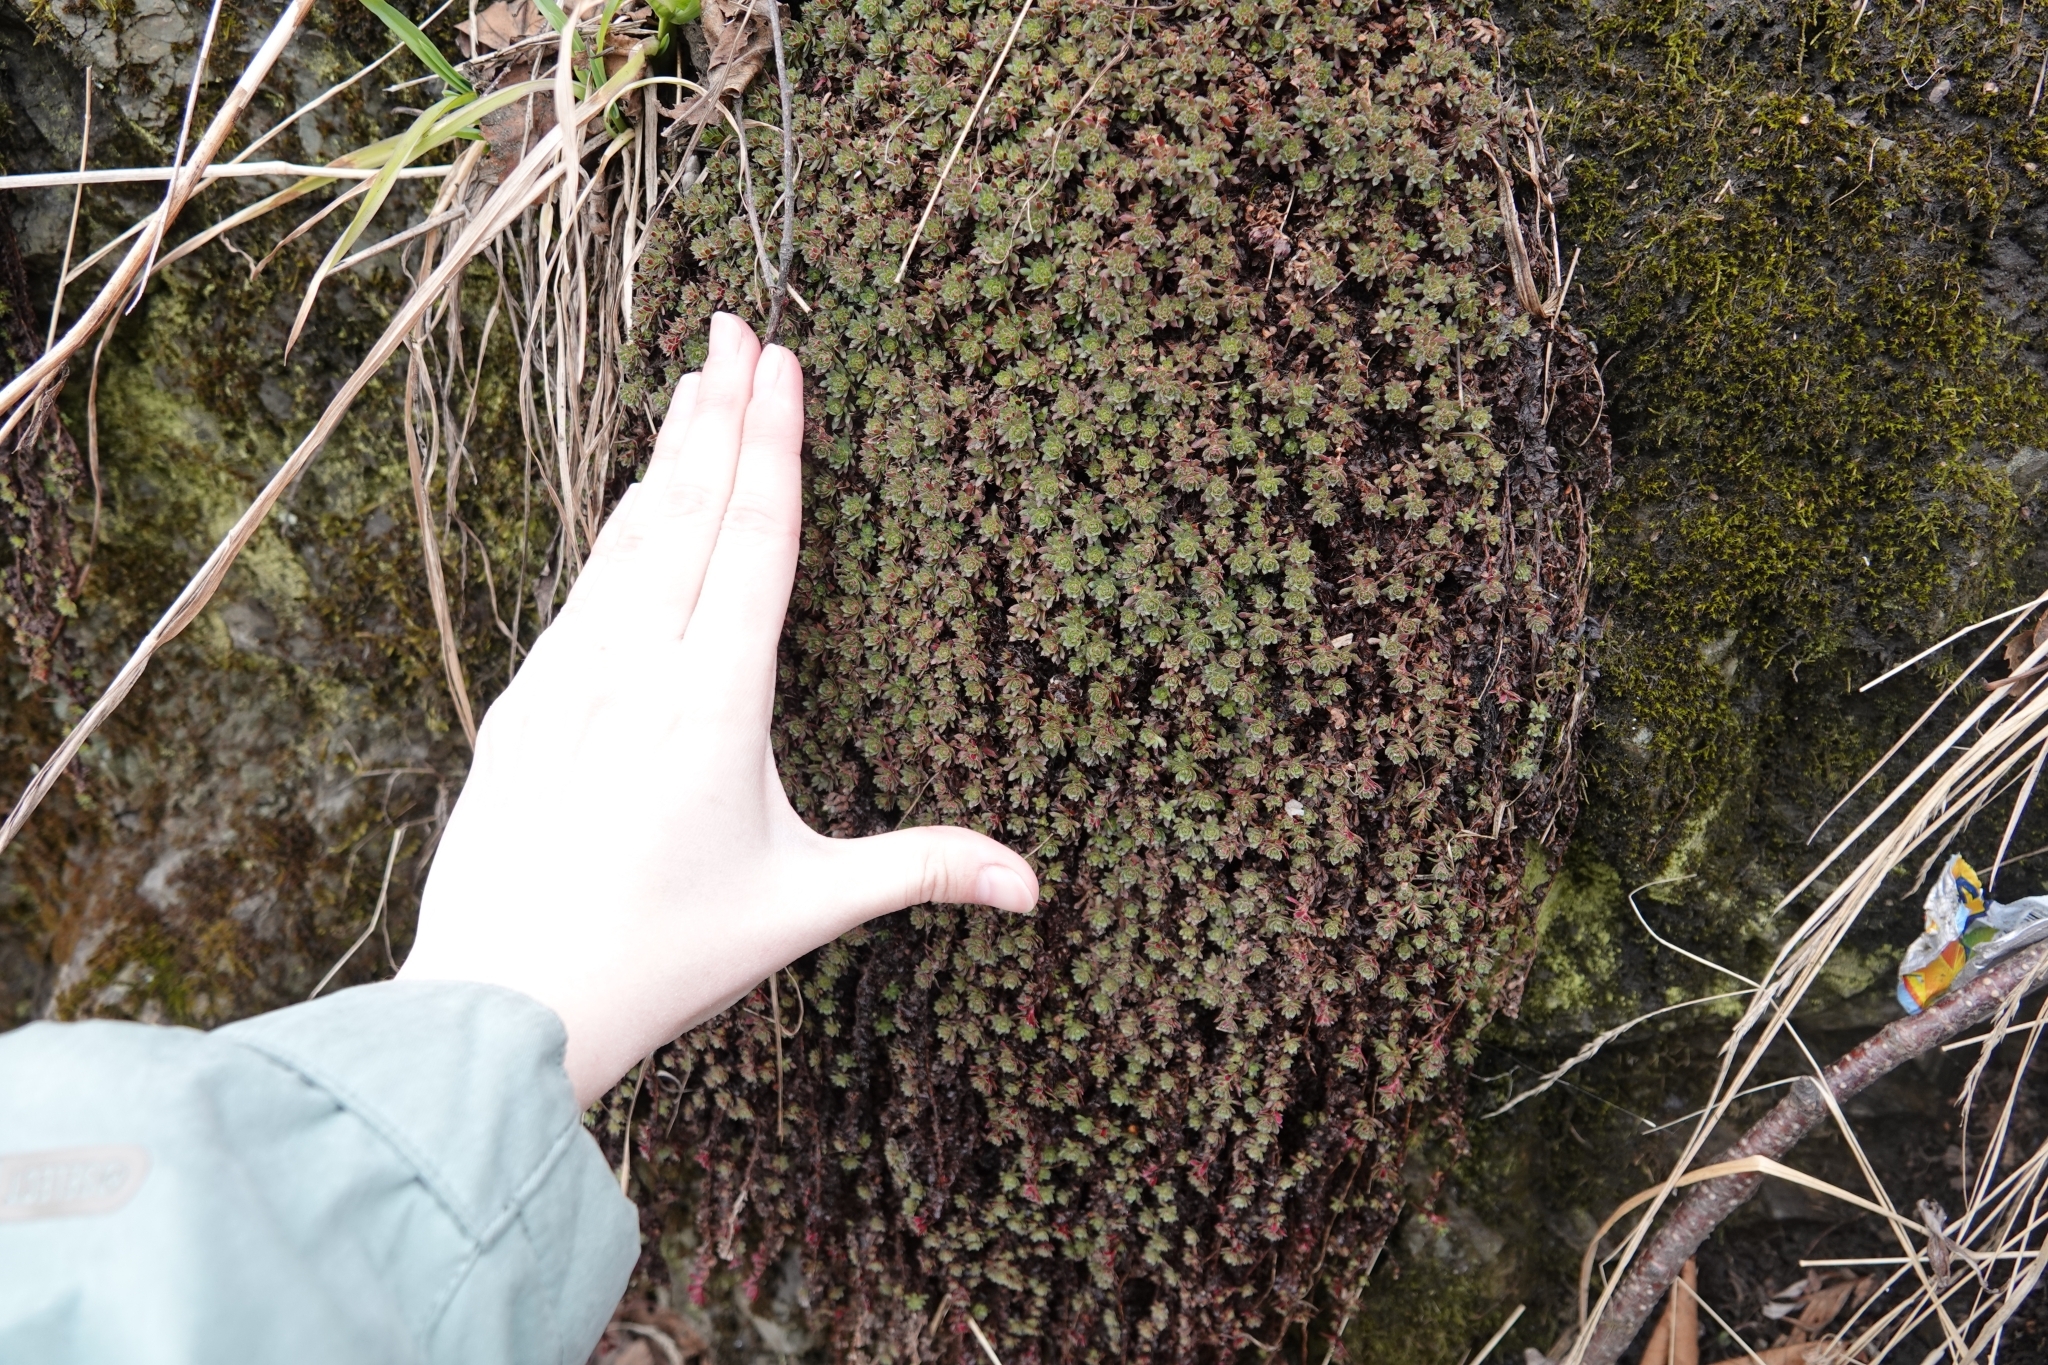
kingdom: Plantae
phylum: Tracheophyta
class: Magnoliopsida
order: Saxifragales
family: Saxifragaceae
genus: Saxifraga
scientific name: Saxifraga cherlerioides
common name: Yellow-dotted saxifrage
